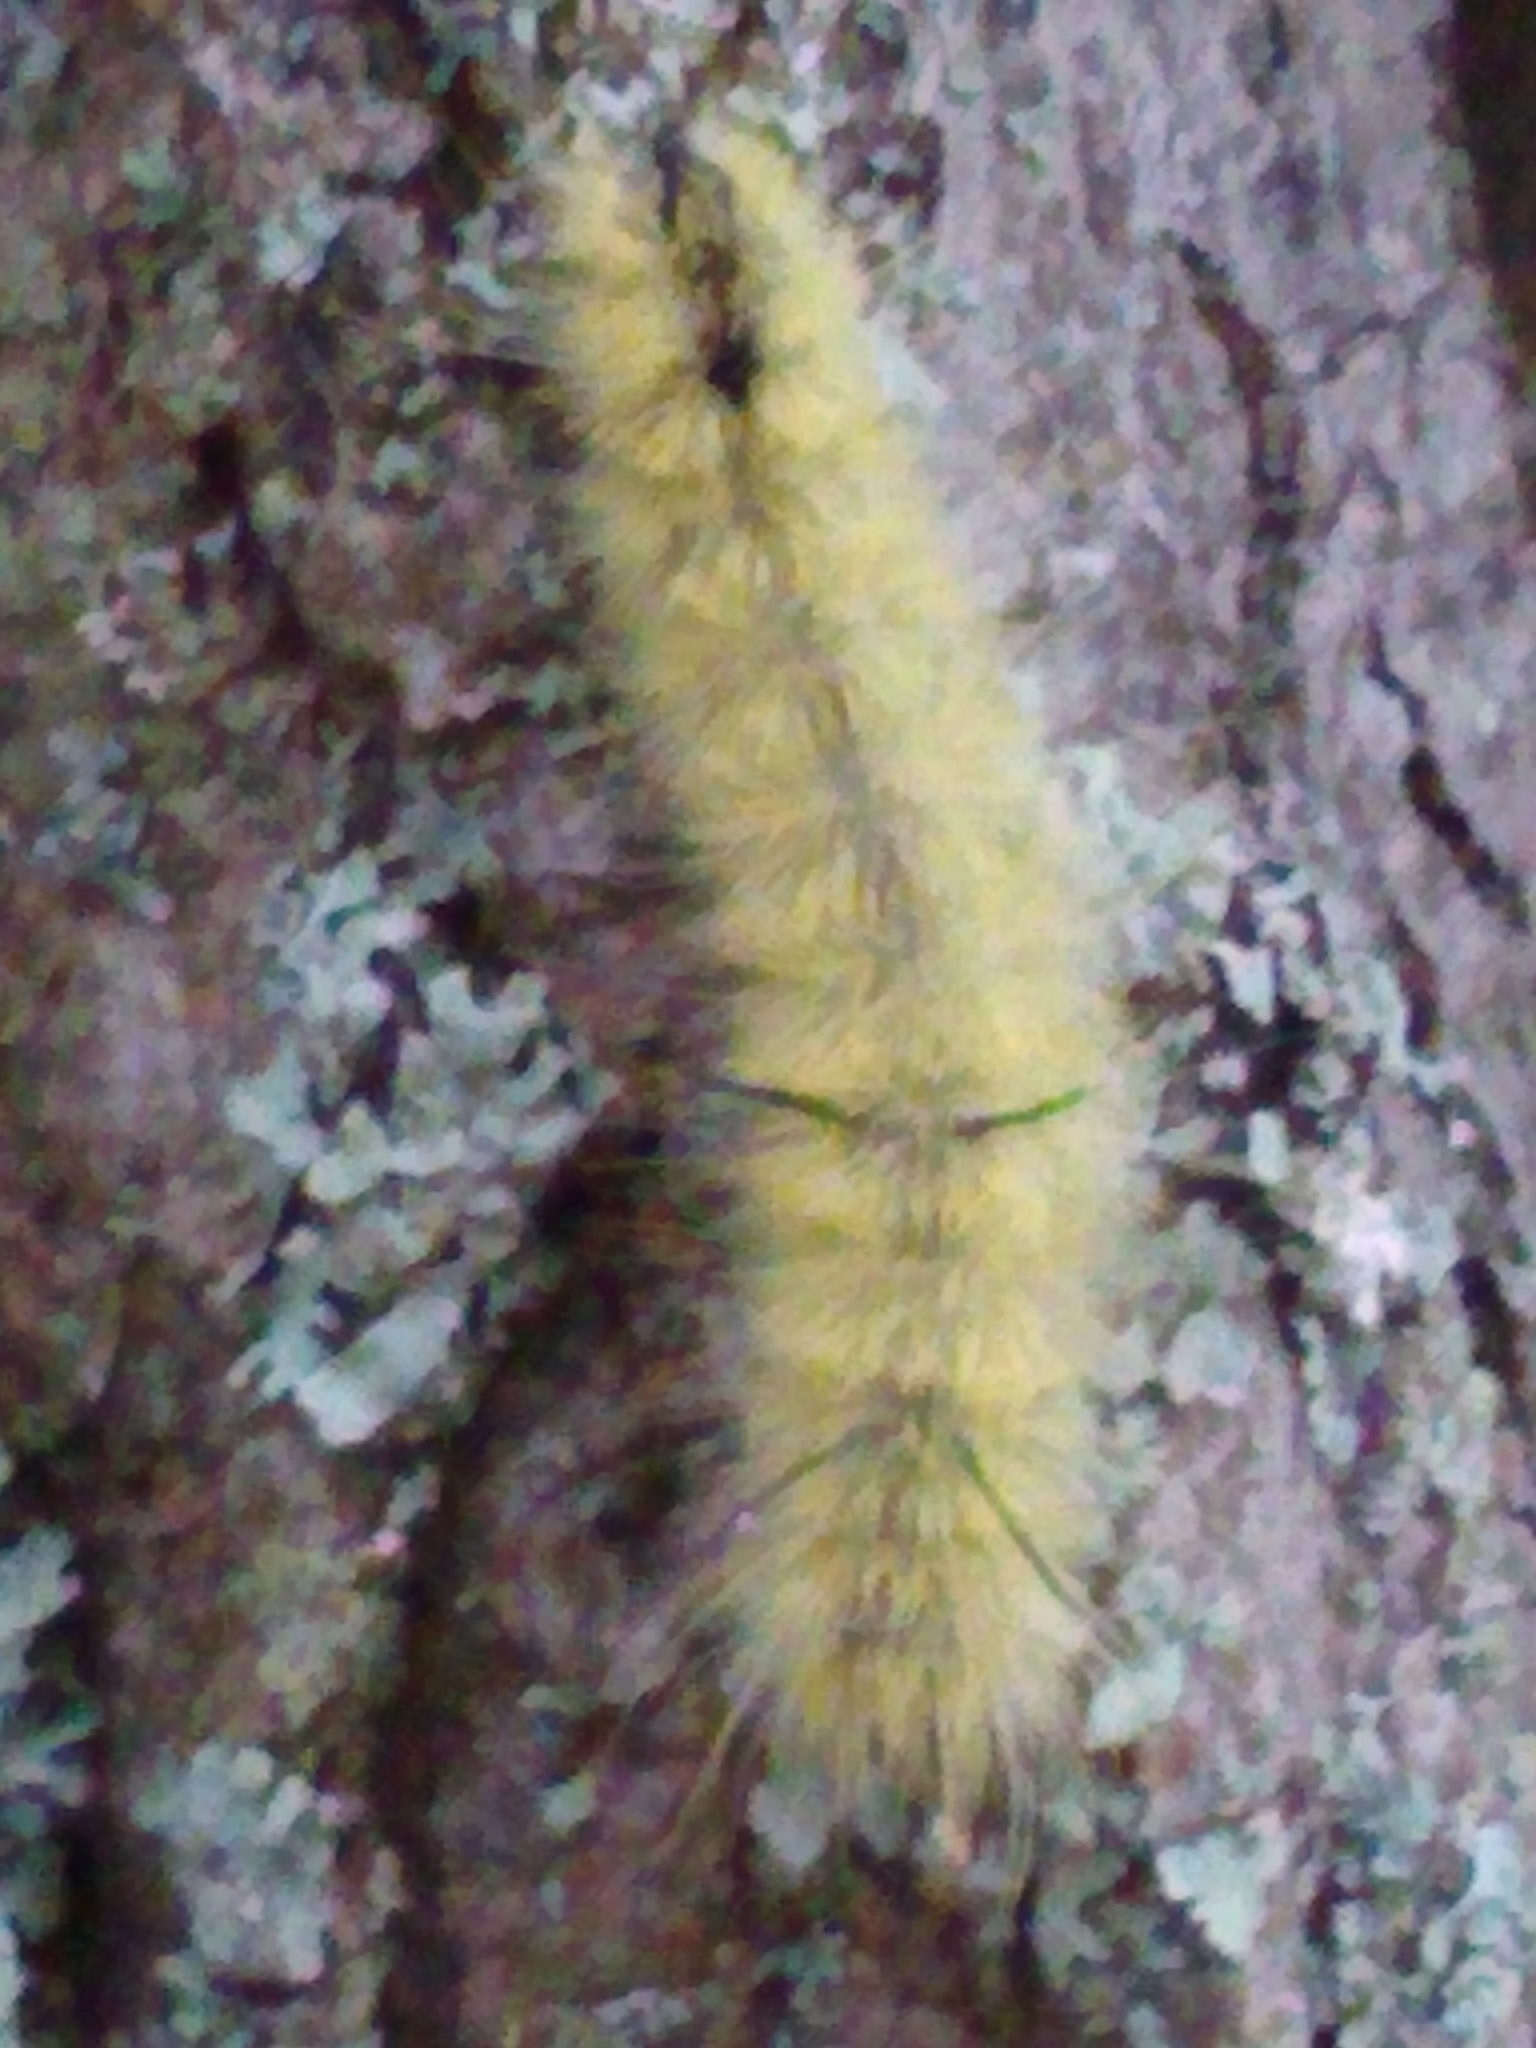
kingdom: Animalia
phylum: Arthropoda
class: Insecta
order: Lepidoptera
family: Noctuidae
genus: Acronicta
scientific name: Acronicta americana
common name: American dagger
